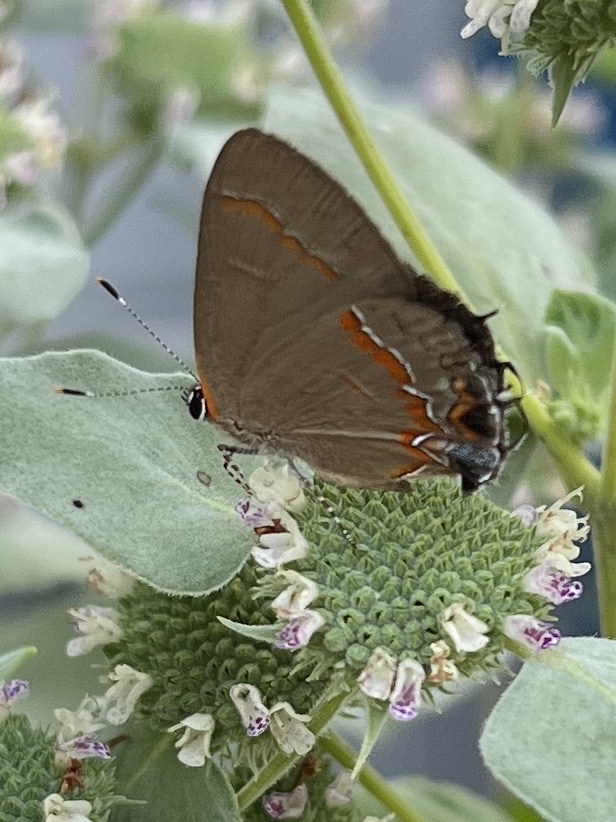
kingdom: Animalia
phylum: Arthropoda
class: Insecta
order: Lepidoptera
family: Lycaenidae
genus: Calycopis
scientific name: Calycopis cecrops
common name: Red-banded hairstreak
